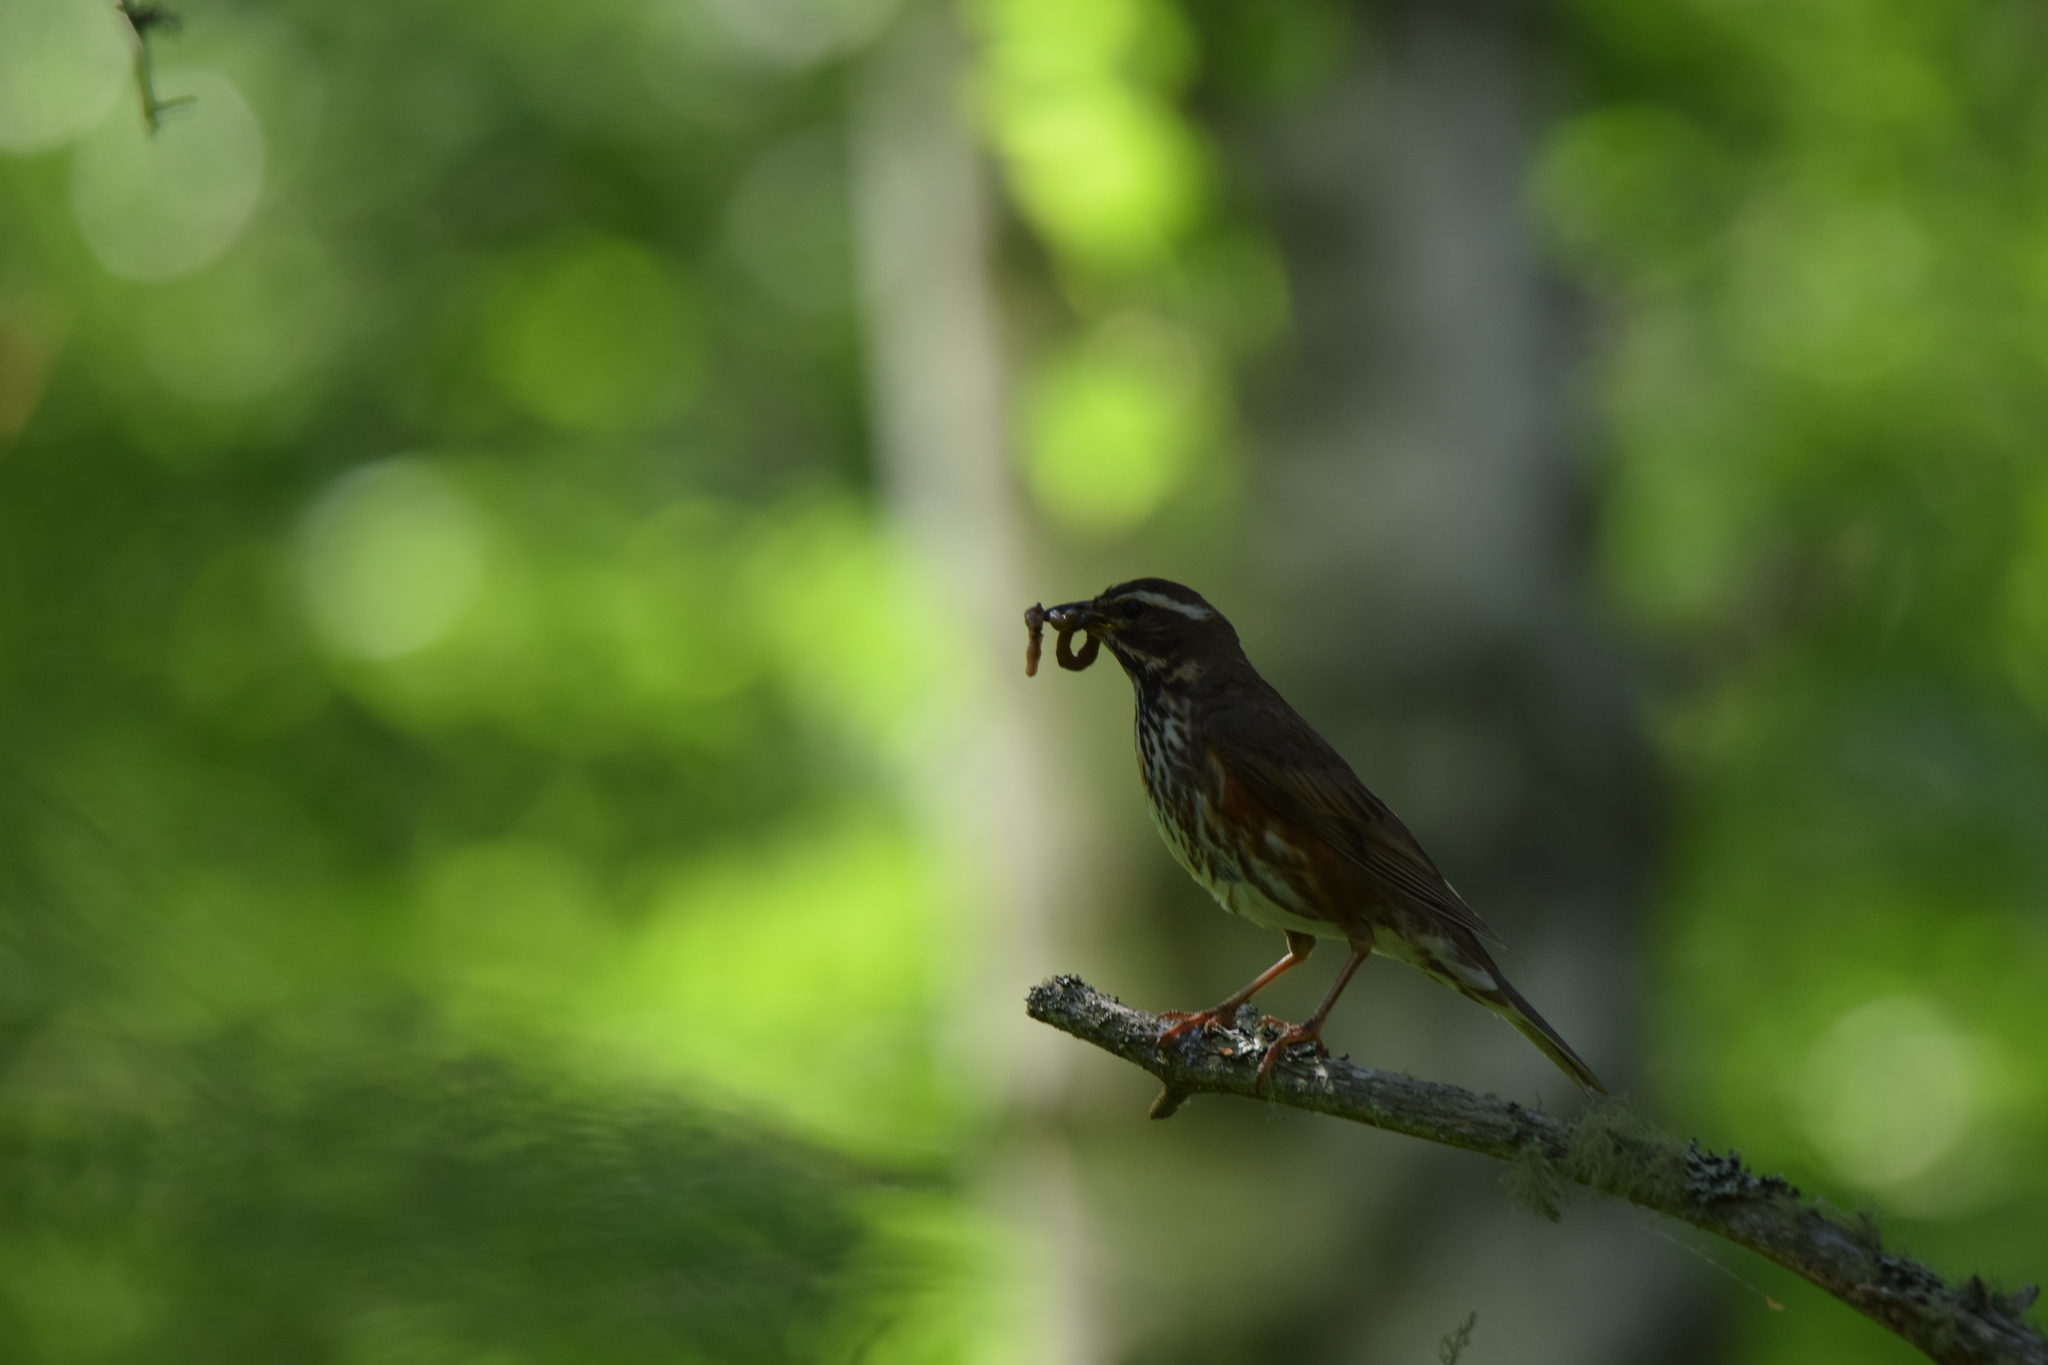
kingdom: Animalia
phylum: Chordata
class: Aves
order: Passeriformes
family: Turdidae
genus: Turdus
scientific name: Turdus iliacus
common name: Redwing
